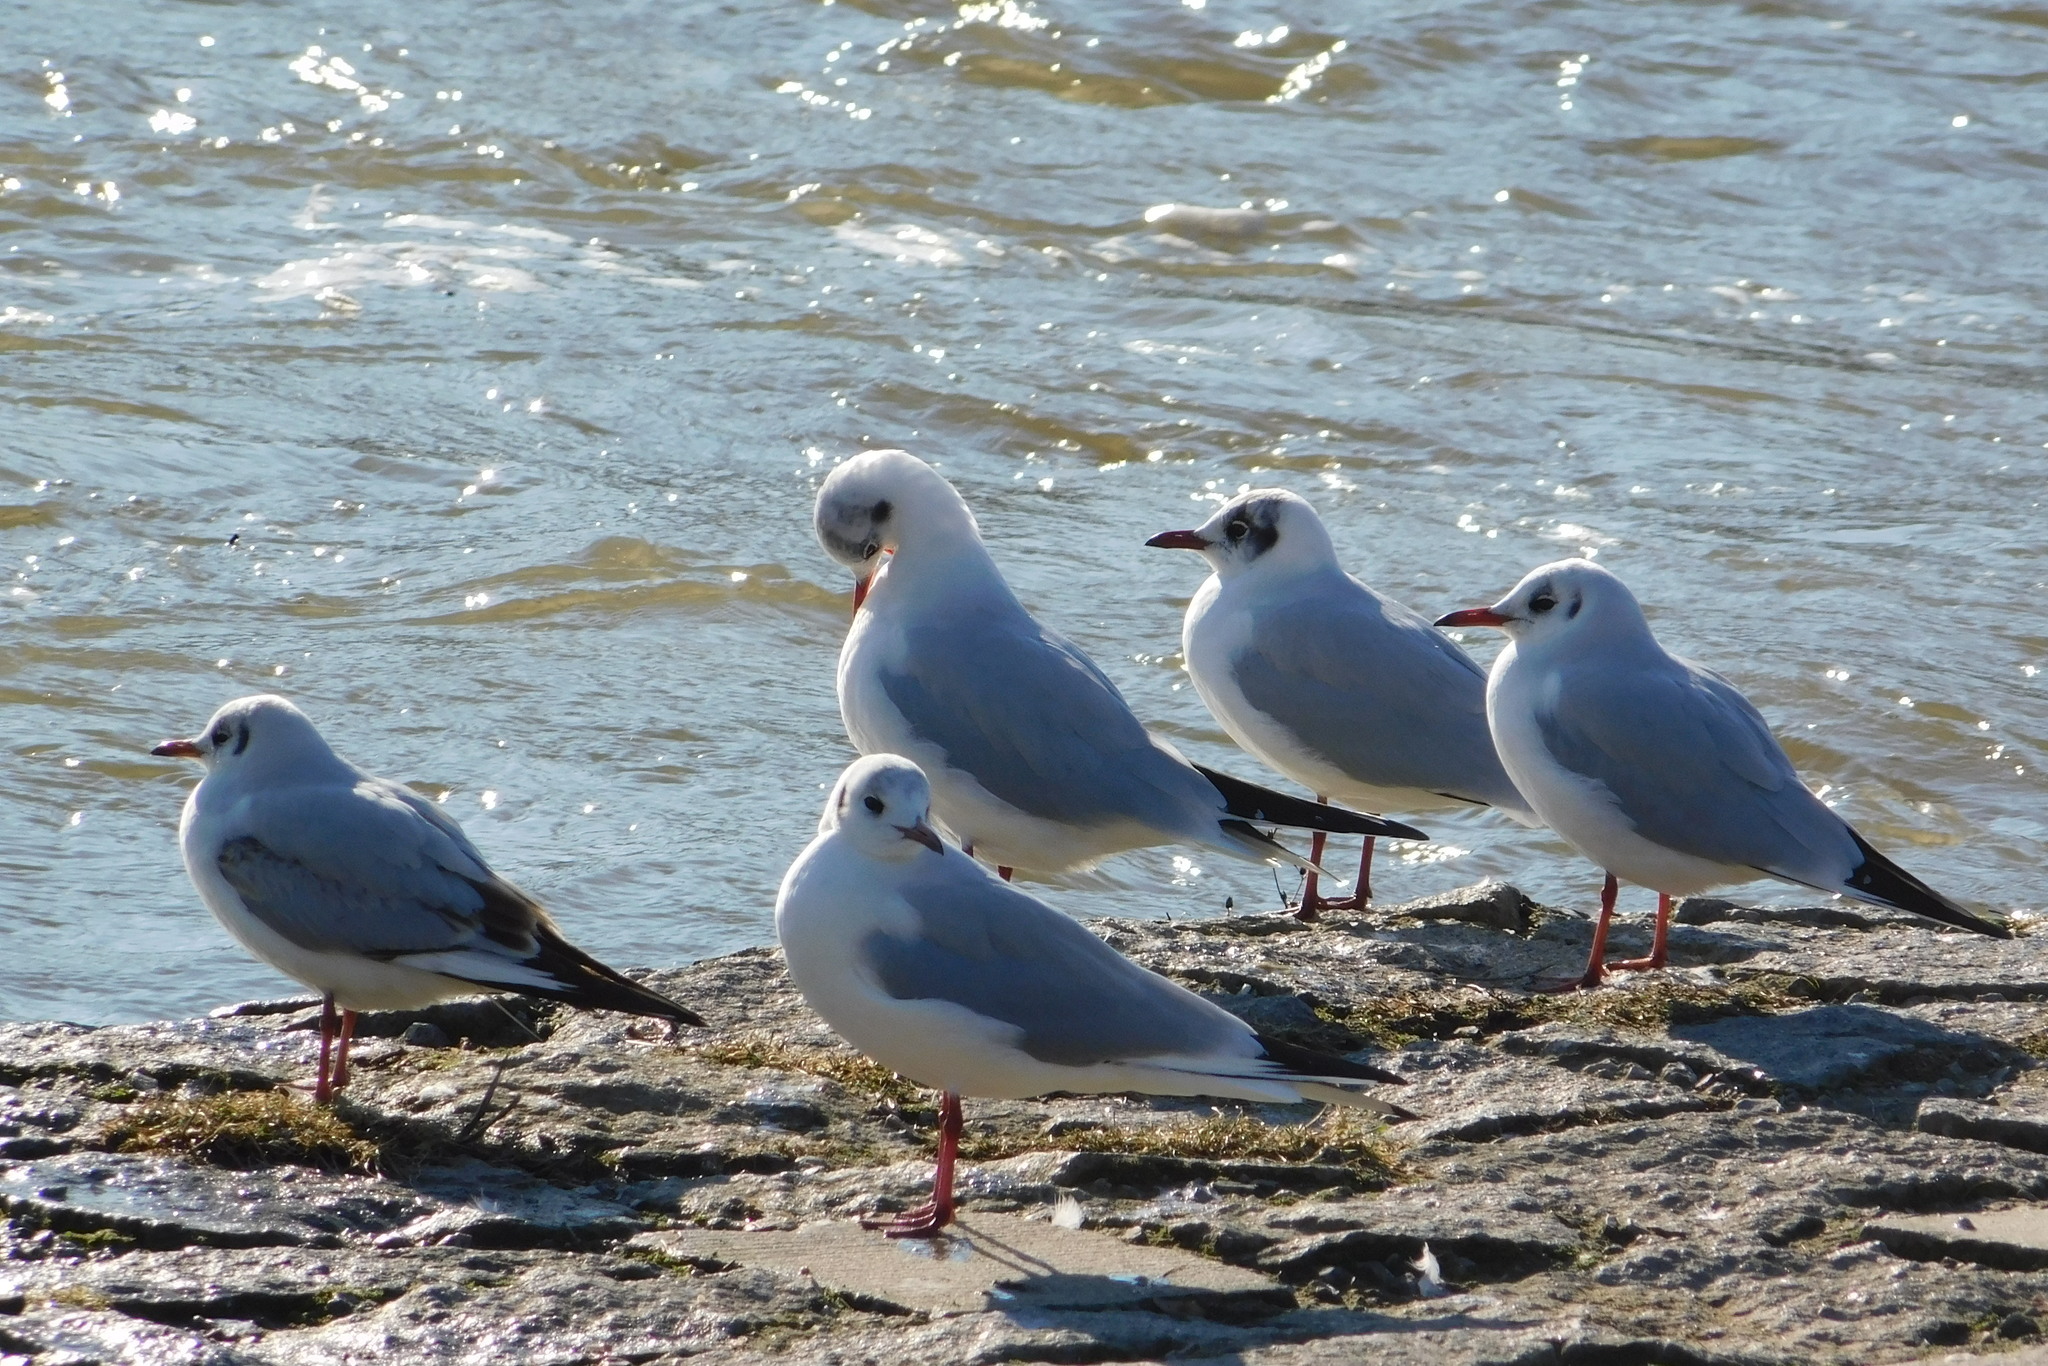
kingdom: Animalia
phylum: Chordata
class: Aves
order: Charadriiformes
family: Laridae
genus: Chroicocephalus
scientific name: Chroicocephalus ridibundus
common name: Black-headed gull
